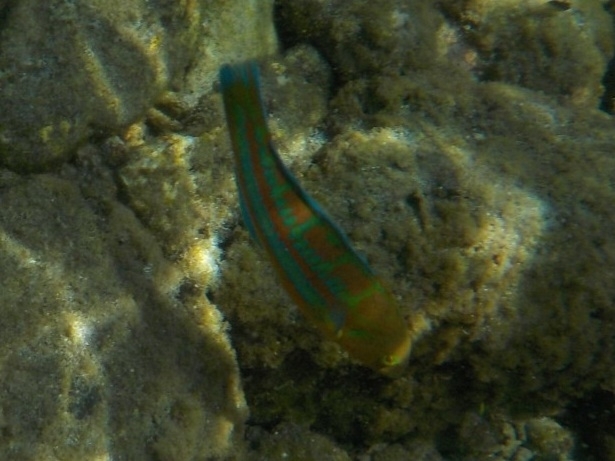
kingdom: Animalia
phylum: Chordata
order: Perciformes
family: Labridae
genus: Thalassoma
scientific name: Thalassoma trilobatum
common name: Christmas wrasse
